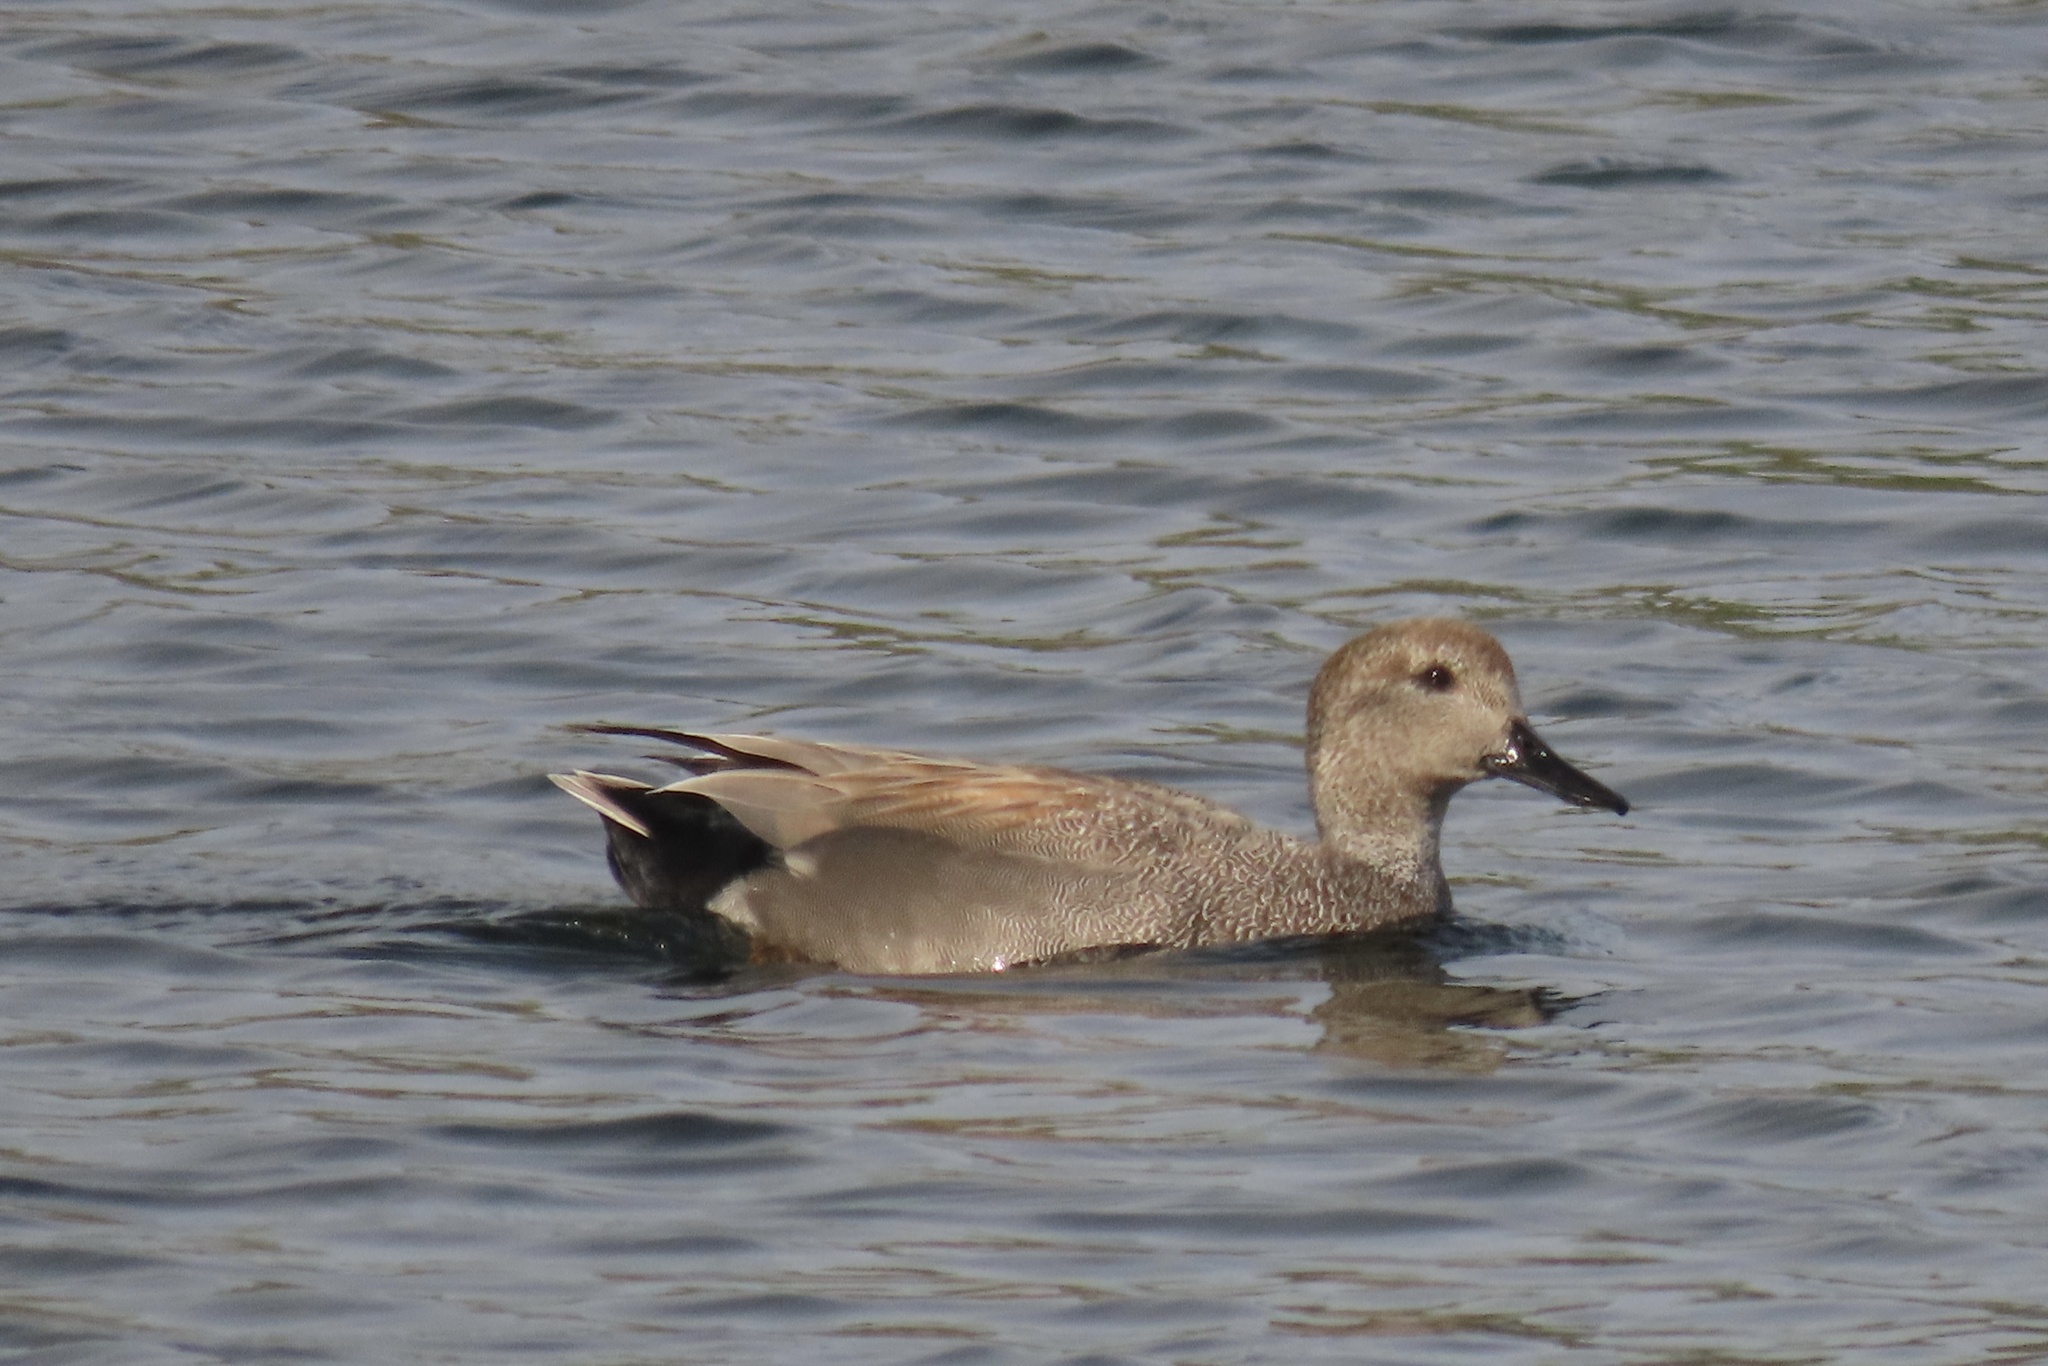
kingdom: Animalia
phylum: Chordata
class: Aves
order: Anseriformes
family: Anatidae
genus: Mareca
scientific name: Mareca strepera
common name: Gadwall
